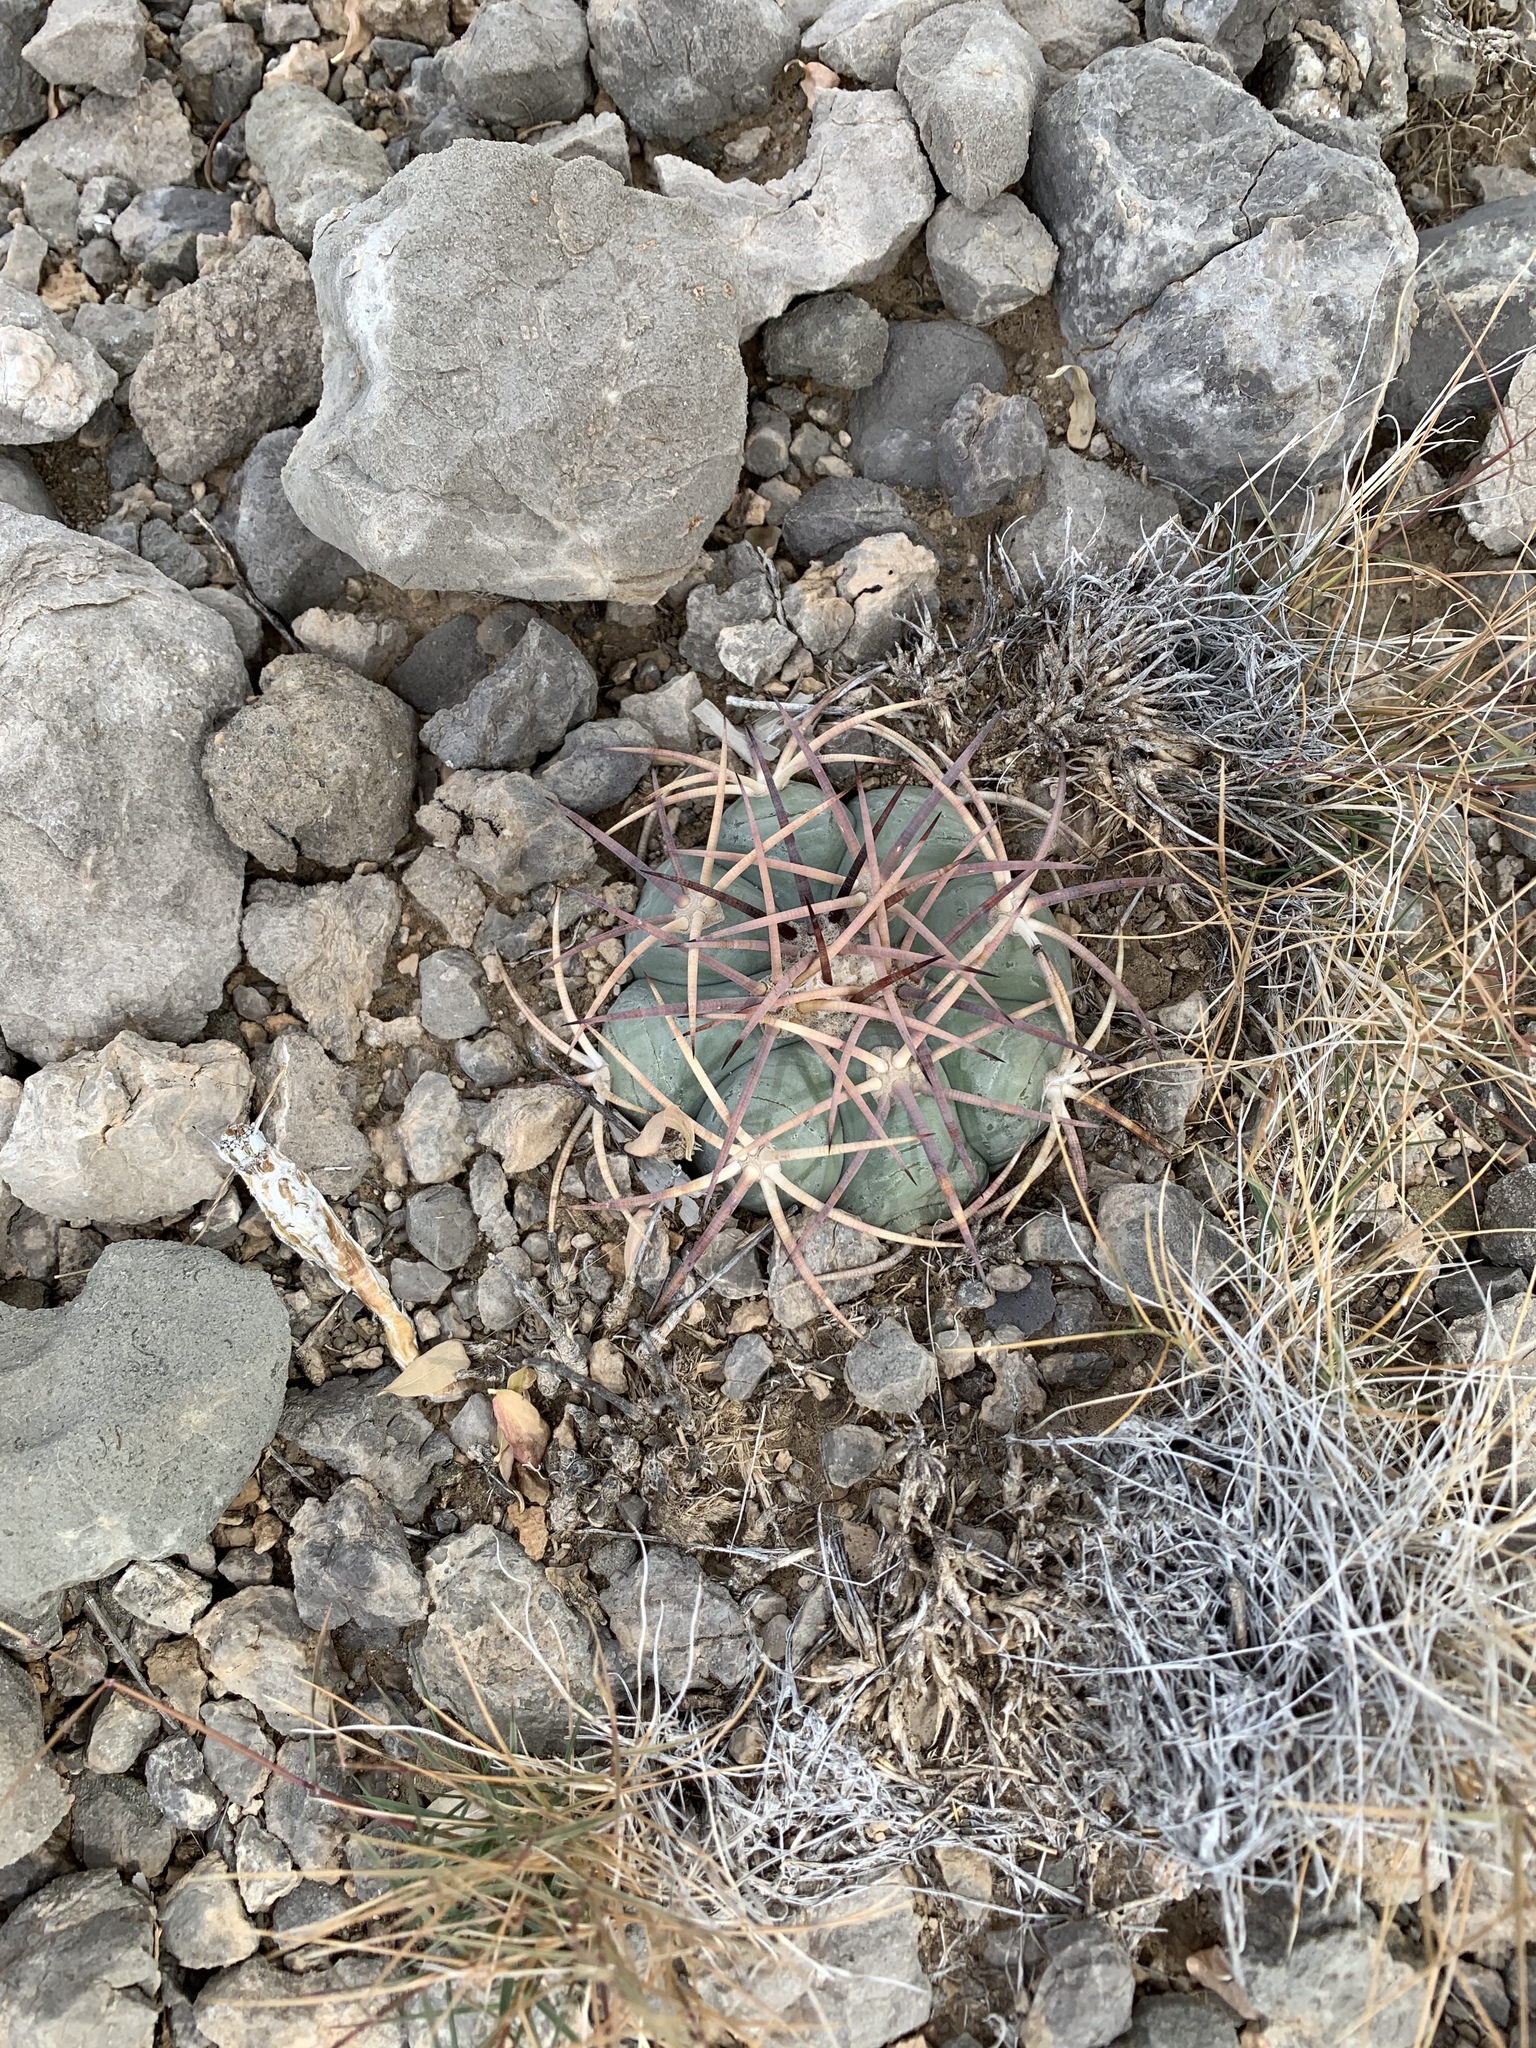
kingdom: Plantae
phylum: Tracheophyta
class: Magnoliopsida
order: Caryophyllales
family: Cactaceae
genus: Echinocactus
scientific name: Echinocactus horizonthalonius
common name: Devilshead
